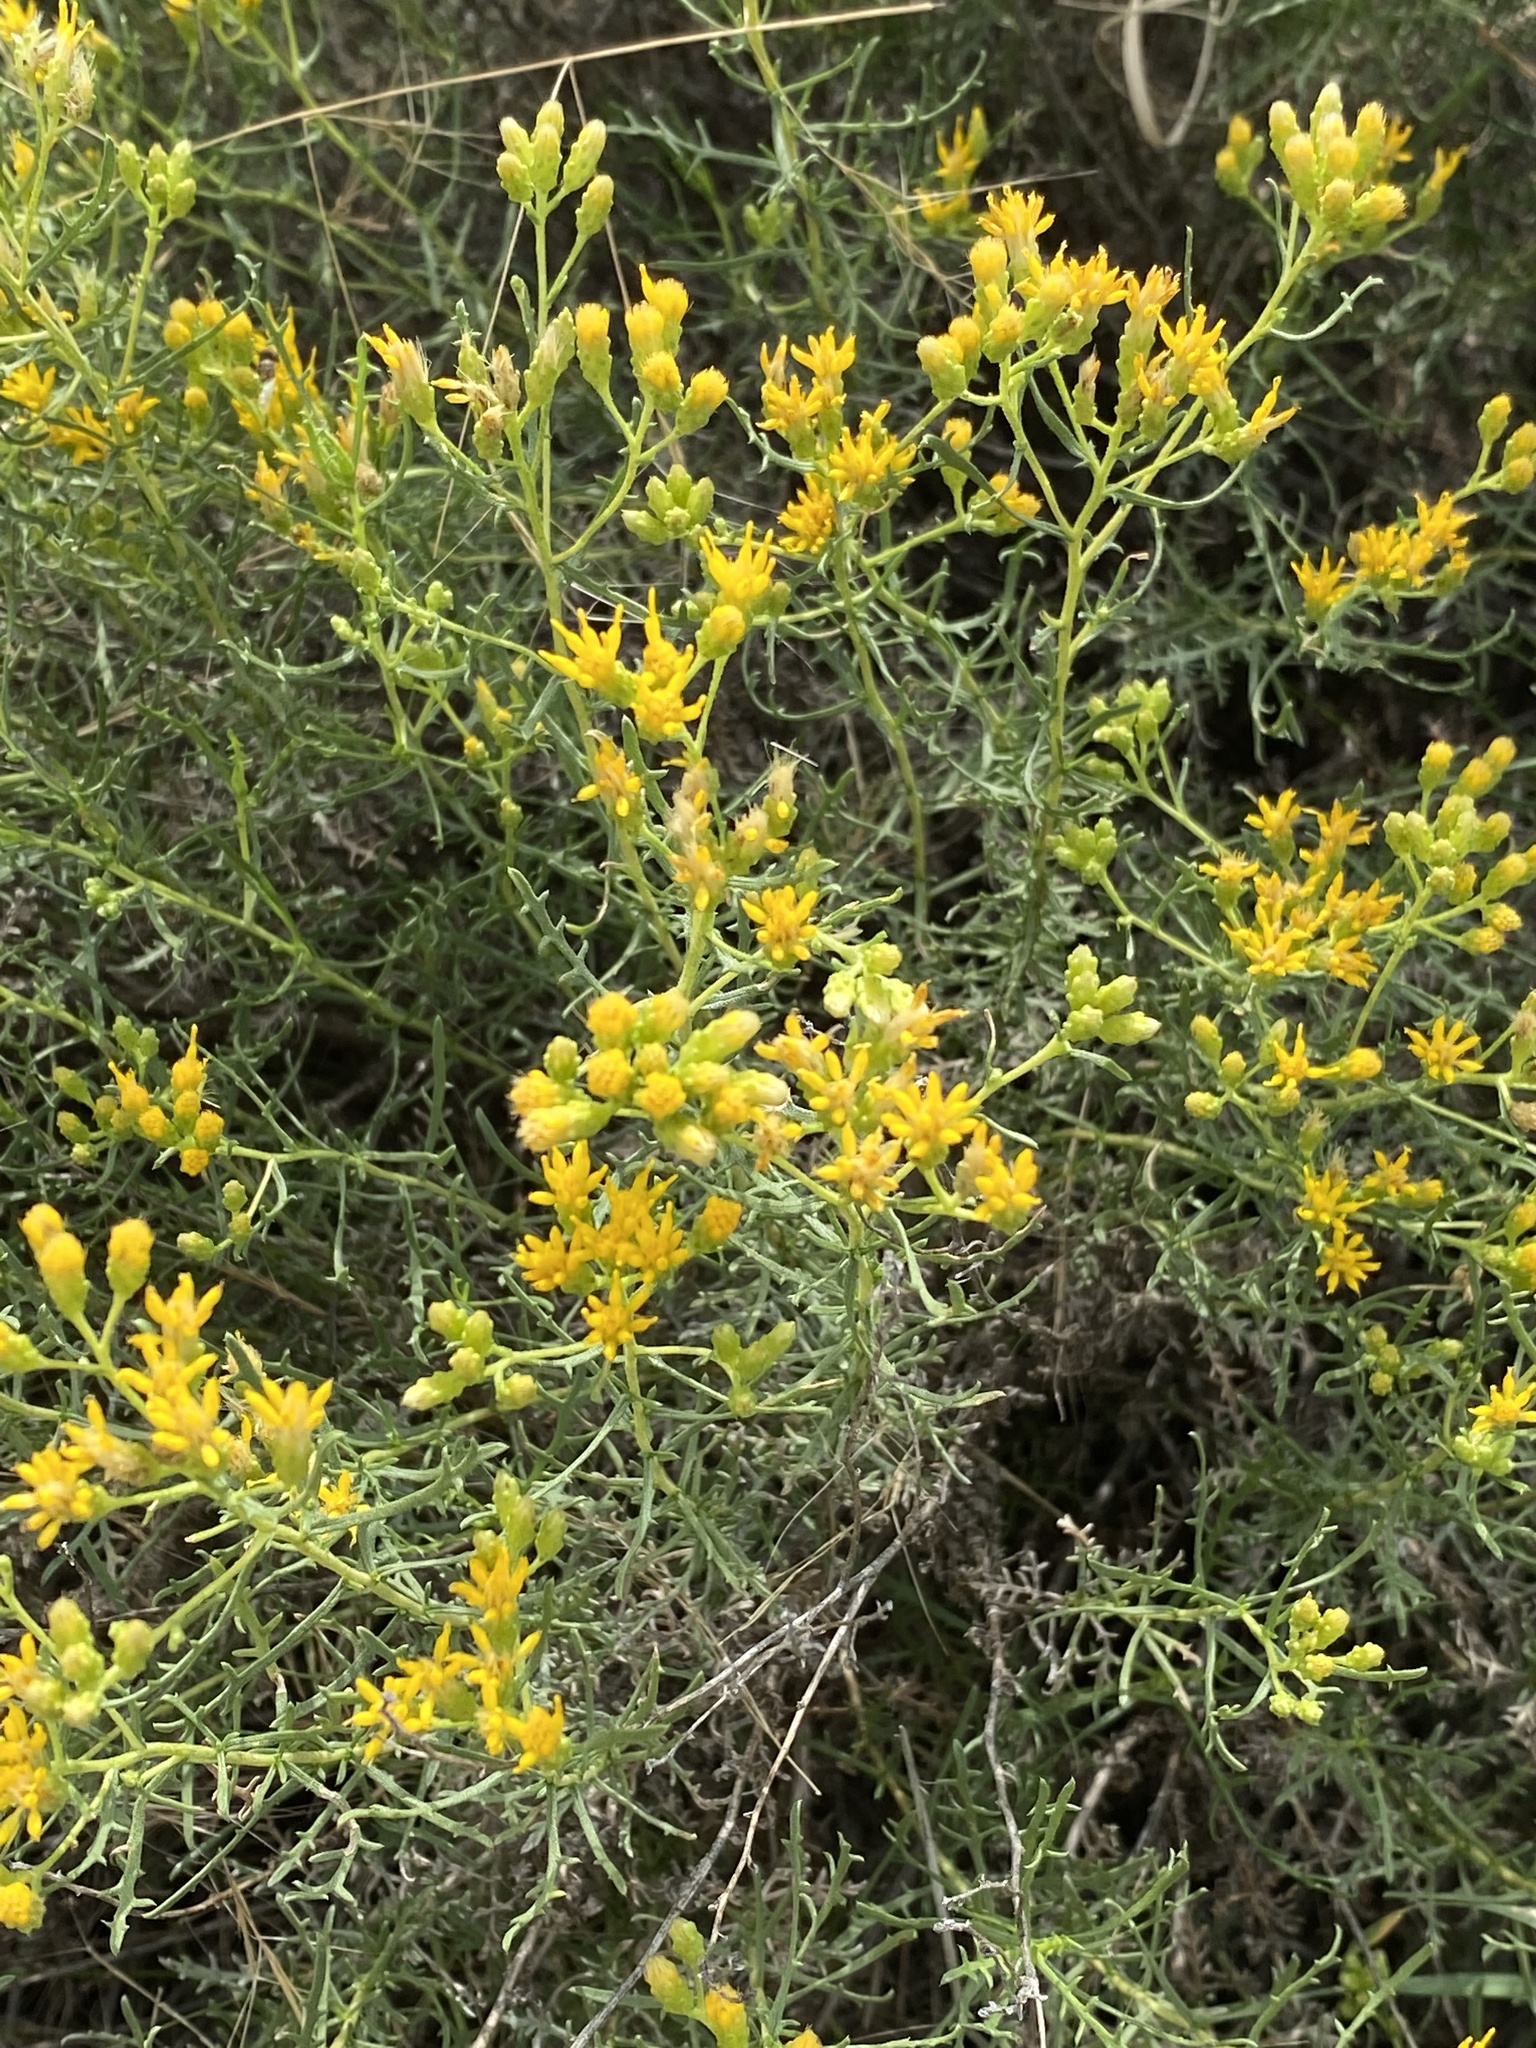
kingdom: Plantae
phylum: Tracheophyta
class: Magnoliopsida
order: Asterales
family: Asteraceae
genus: Isocoma
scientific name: Isocoma tenuisecta
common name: Burroweed
